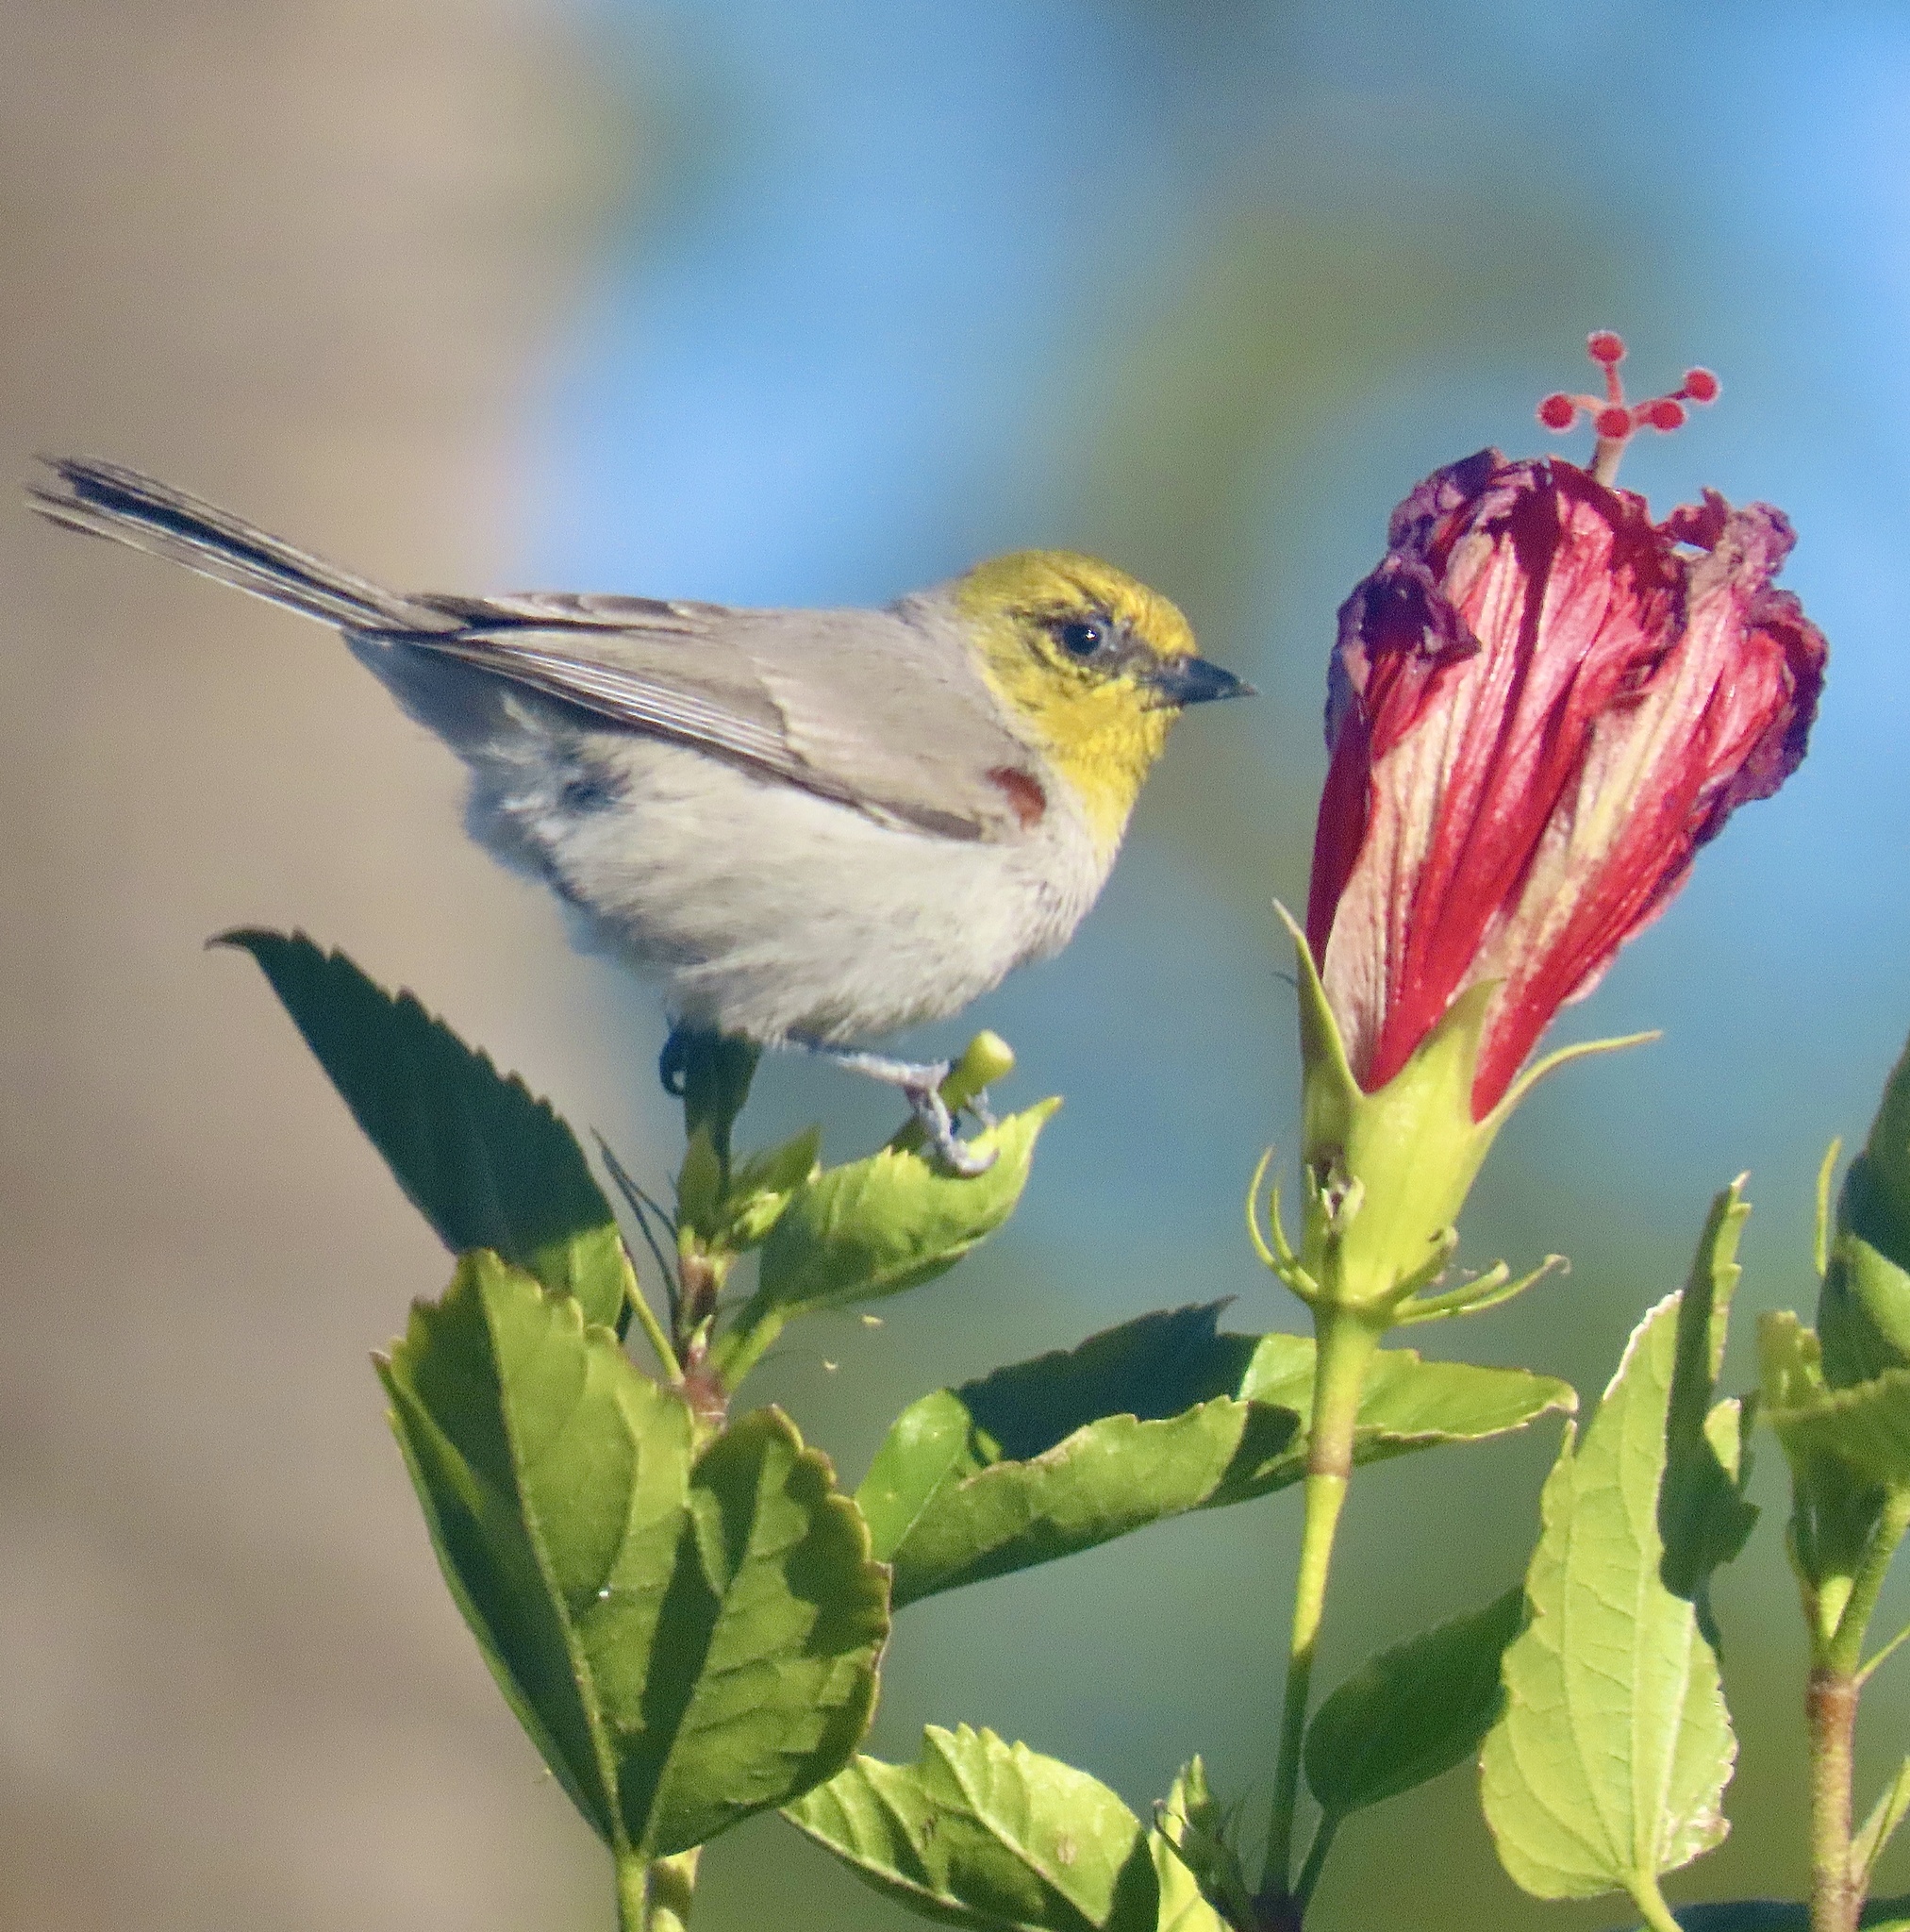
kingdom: Animalia
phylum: Chordata
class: Aves
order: Passeriformes
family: Remizidae
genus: Auriparus
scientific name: Auriparus flaviceps
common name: Verdin
